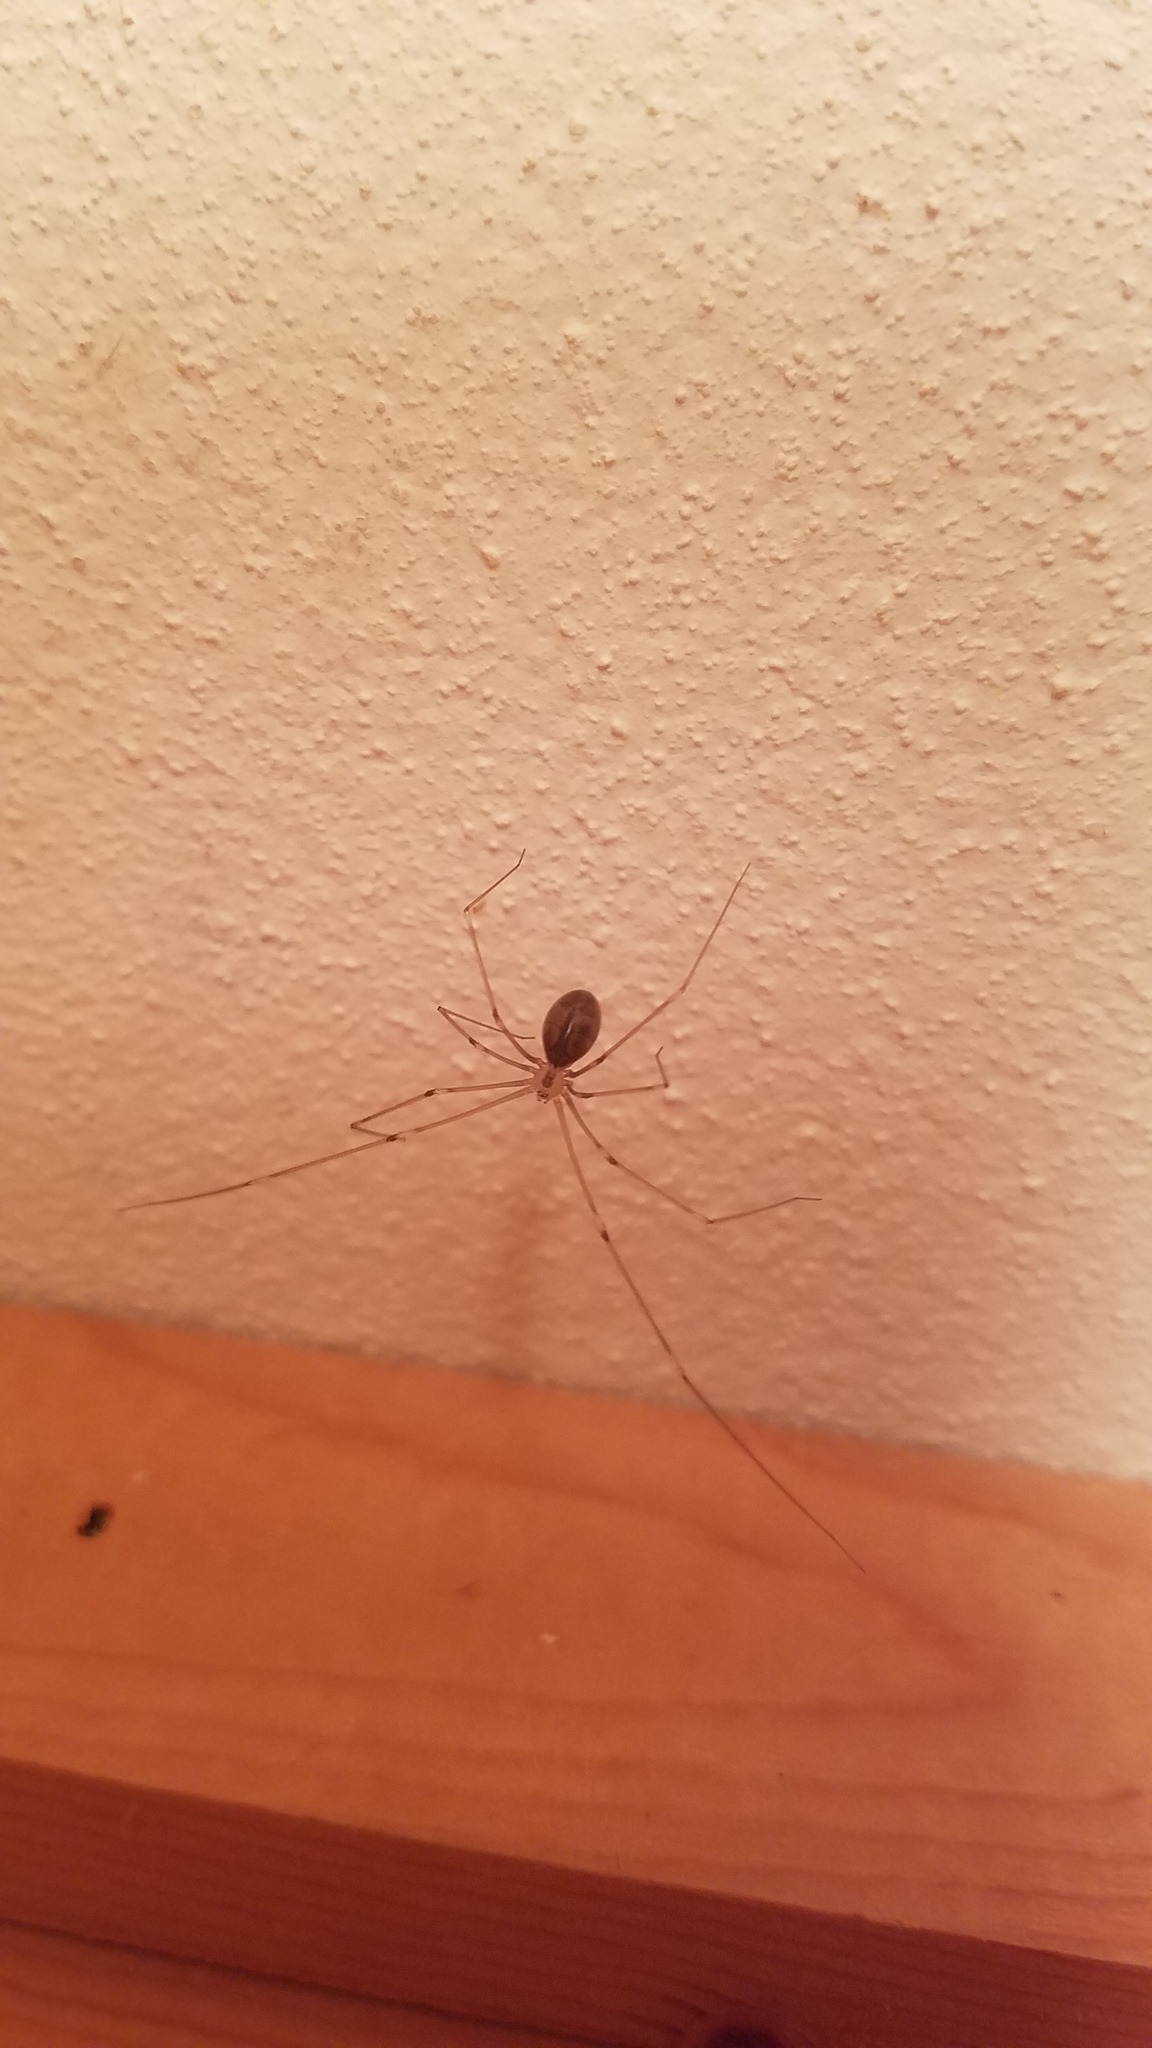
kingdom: Animalia
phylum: Arthropoda
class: Arachnida
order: Araneae
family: Pholcidae
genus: Pholcus
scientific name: Pholcus phalangioides
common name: Longbodied cellar spider
